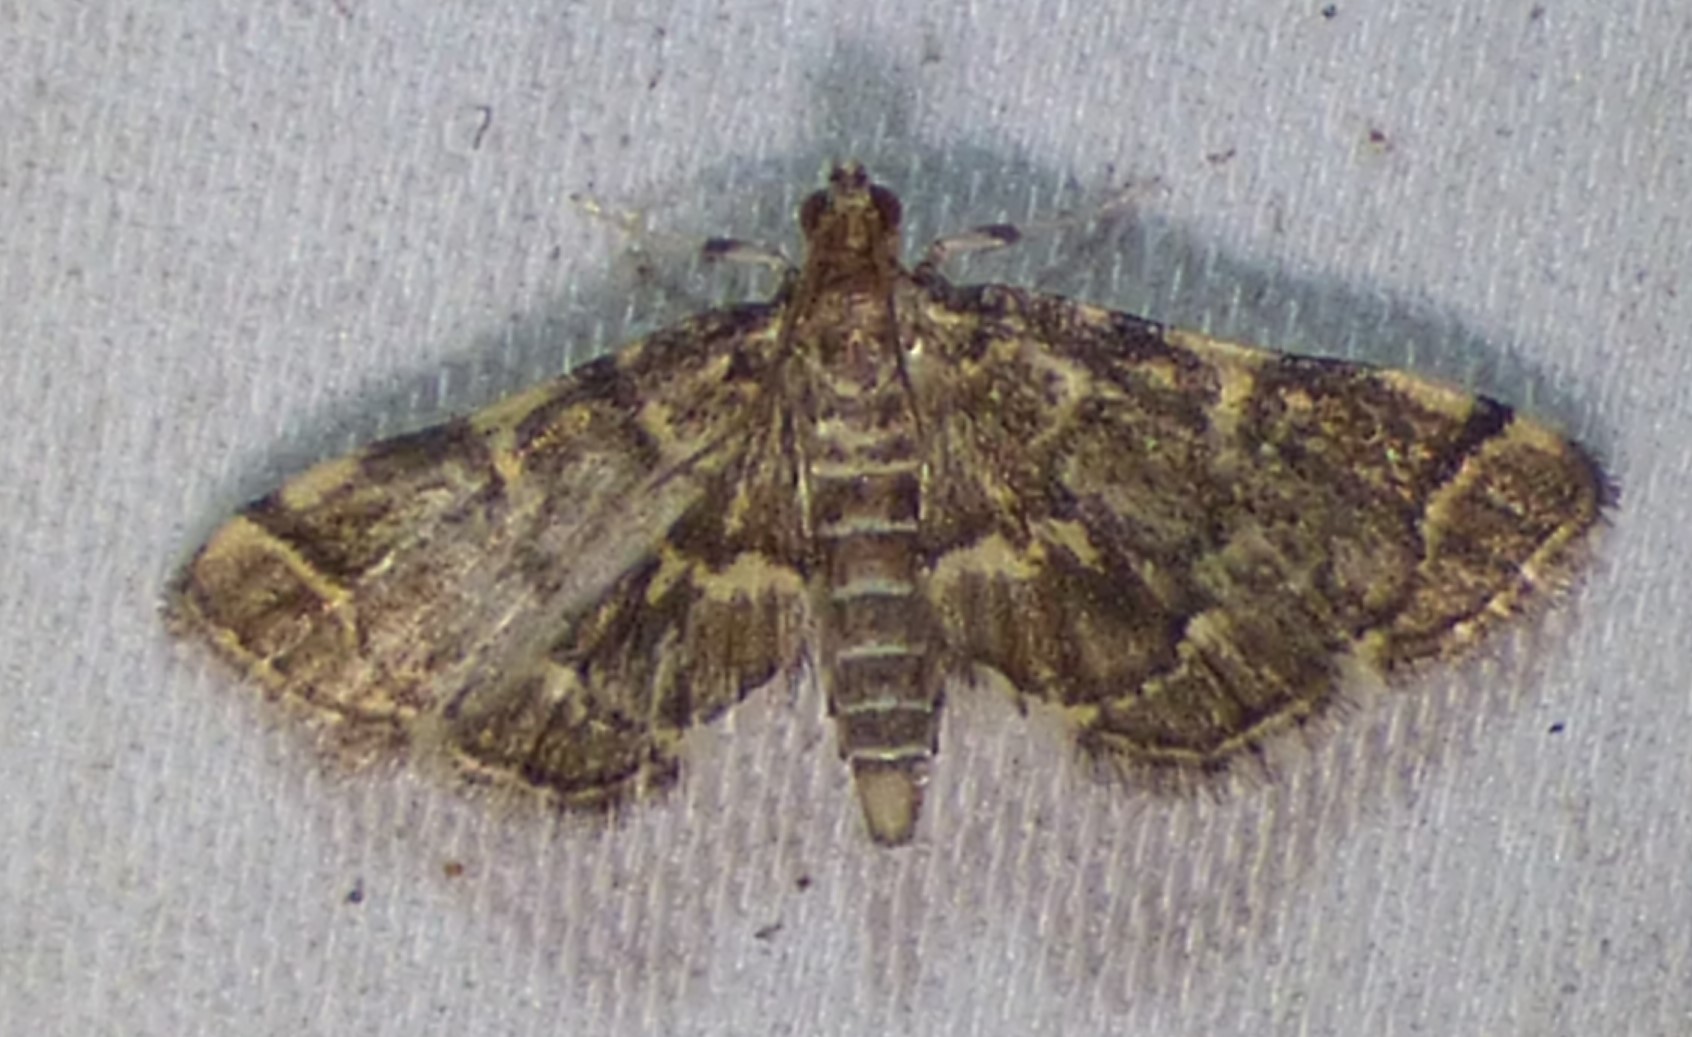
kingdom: Animalia
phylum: Arthropoda
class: Insecta
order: Lepidoptera
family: Crambidae
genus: Anageshna
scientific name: Anageshna primordialis
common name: Yellow-spotted webworm moth
